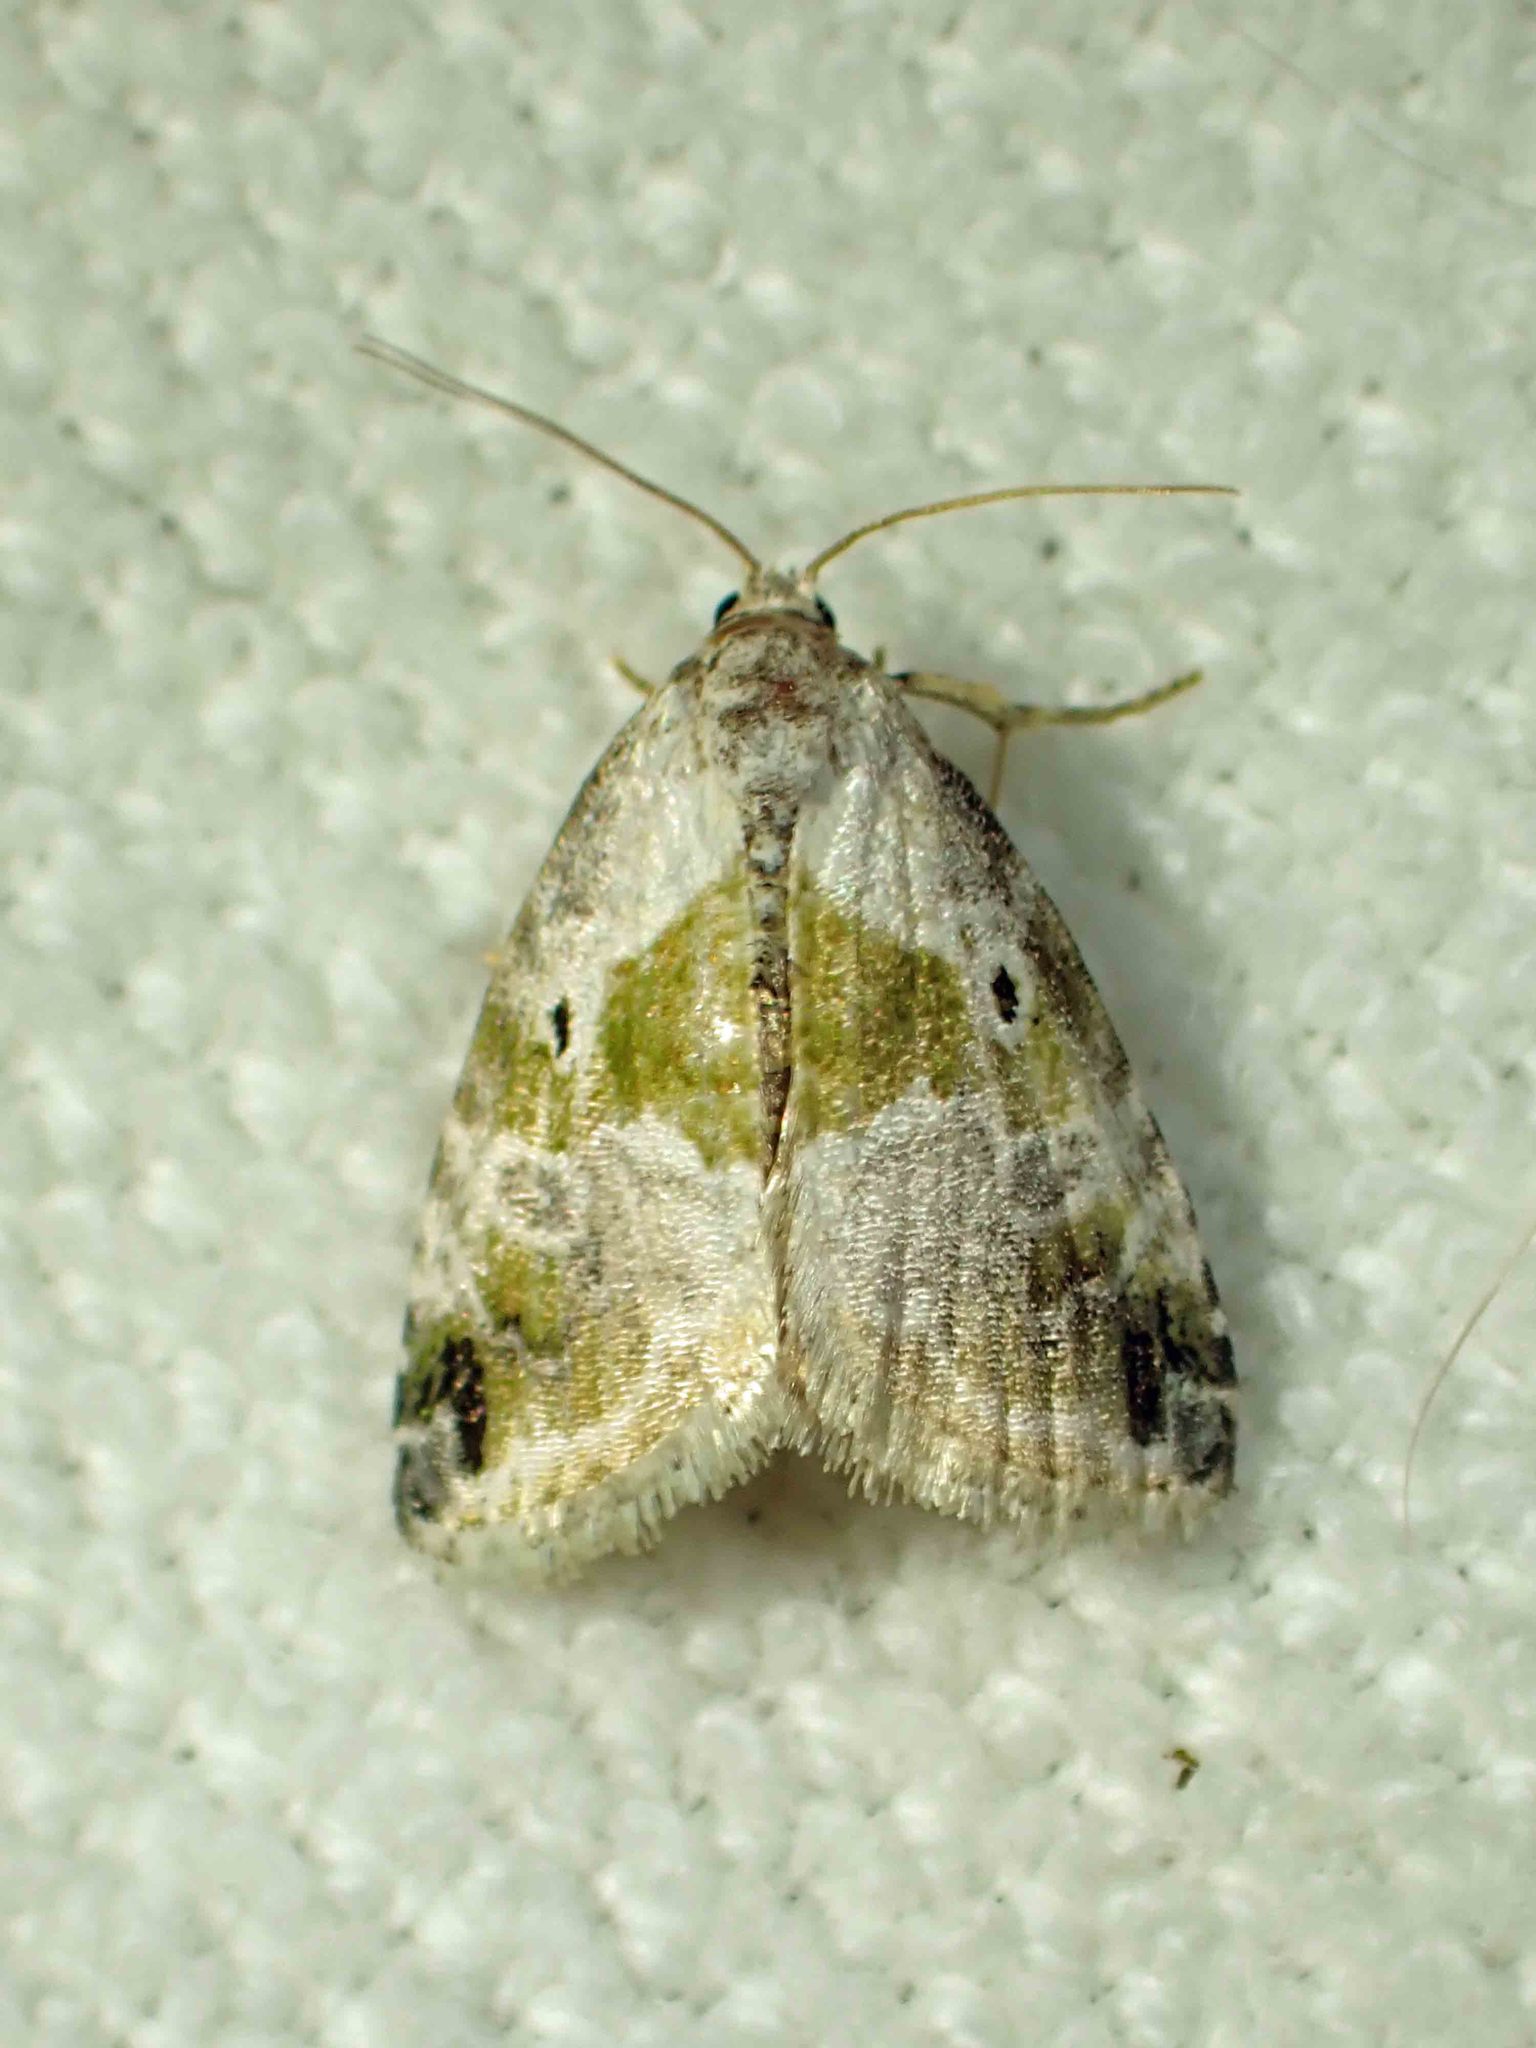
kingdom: Animalia
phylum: Arthropoda
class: Insecta
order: Lepidoptera
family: Noctuidae
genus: Maliattha
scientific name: Maliattha synochitis
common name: Black-dotted glyph
